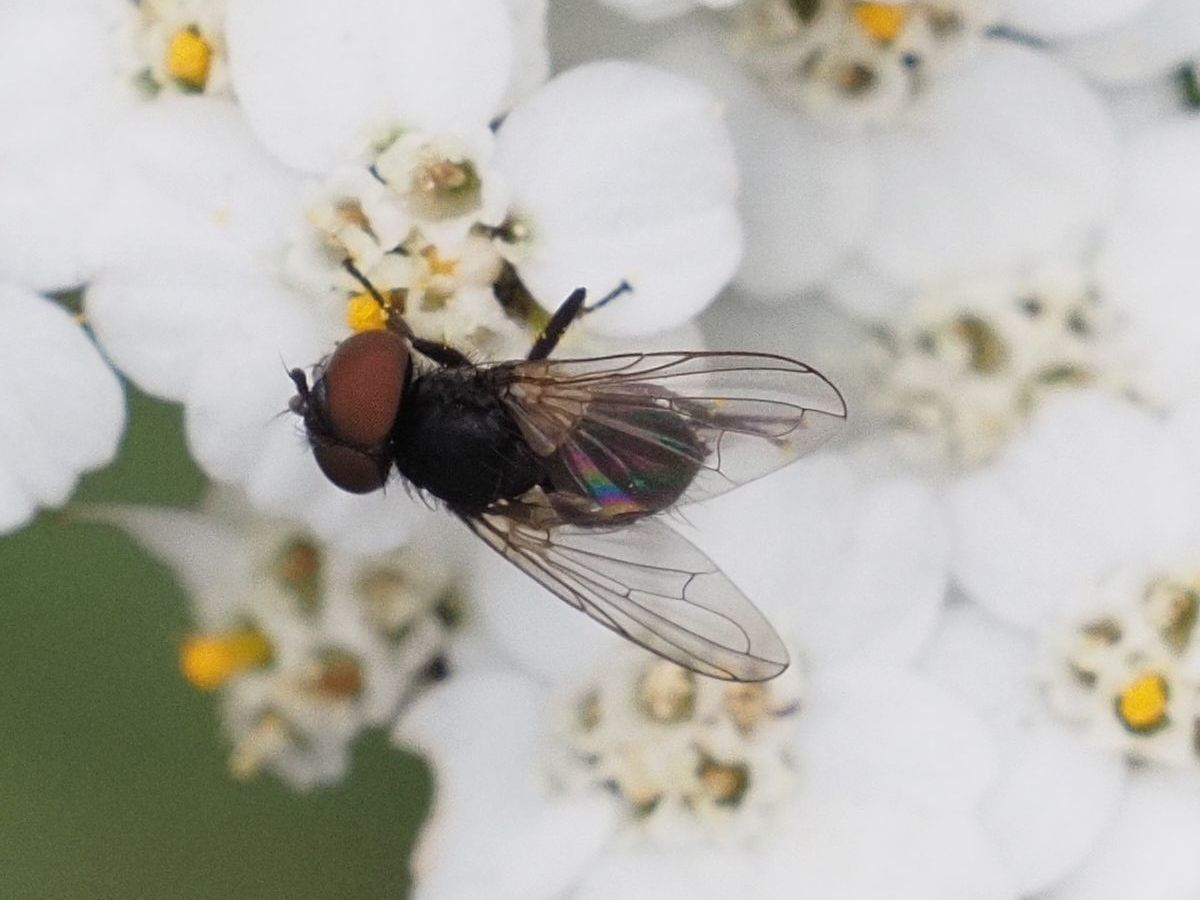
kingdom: Animalia
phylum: Arthropoda
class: Insecta
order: Diptera
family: Tachinidae
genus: Phasia
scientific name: Phasia barbifrons
